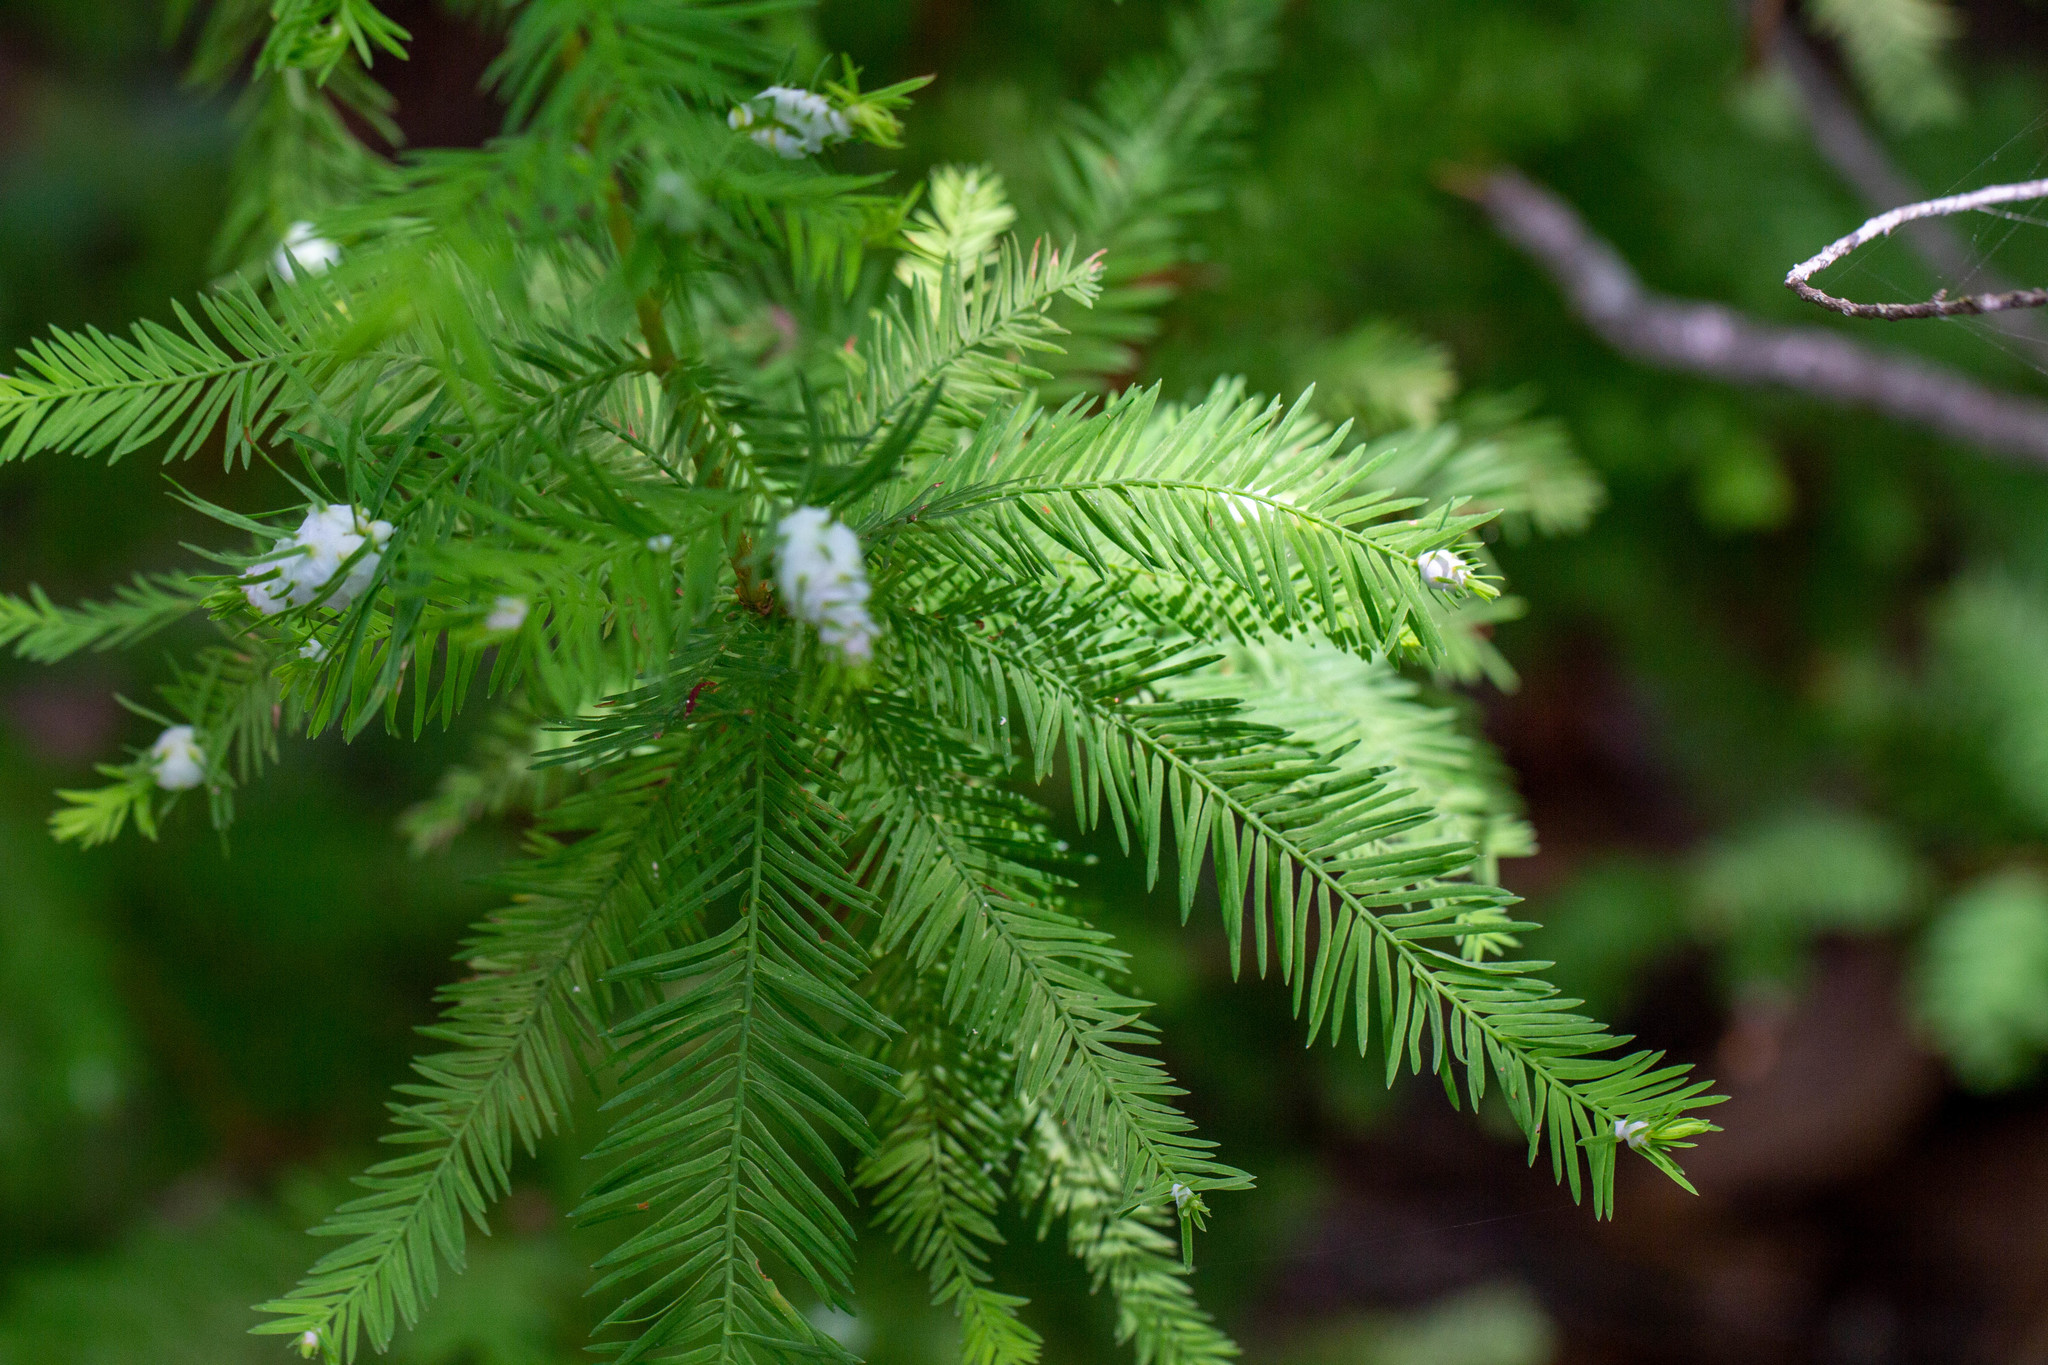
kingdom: Plantae
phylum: Tracheophyta
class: Pinopsida
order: Pinales
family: Cupressaceae
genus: Taxodium
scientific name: Taxodium distichum
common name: Bald cypress
